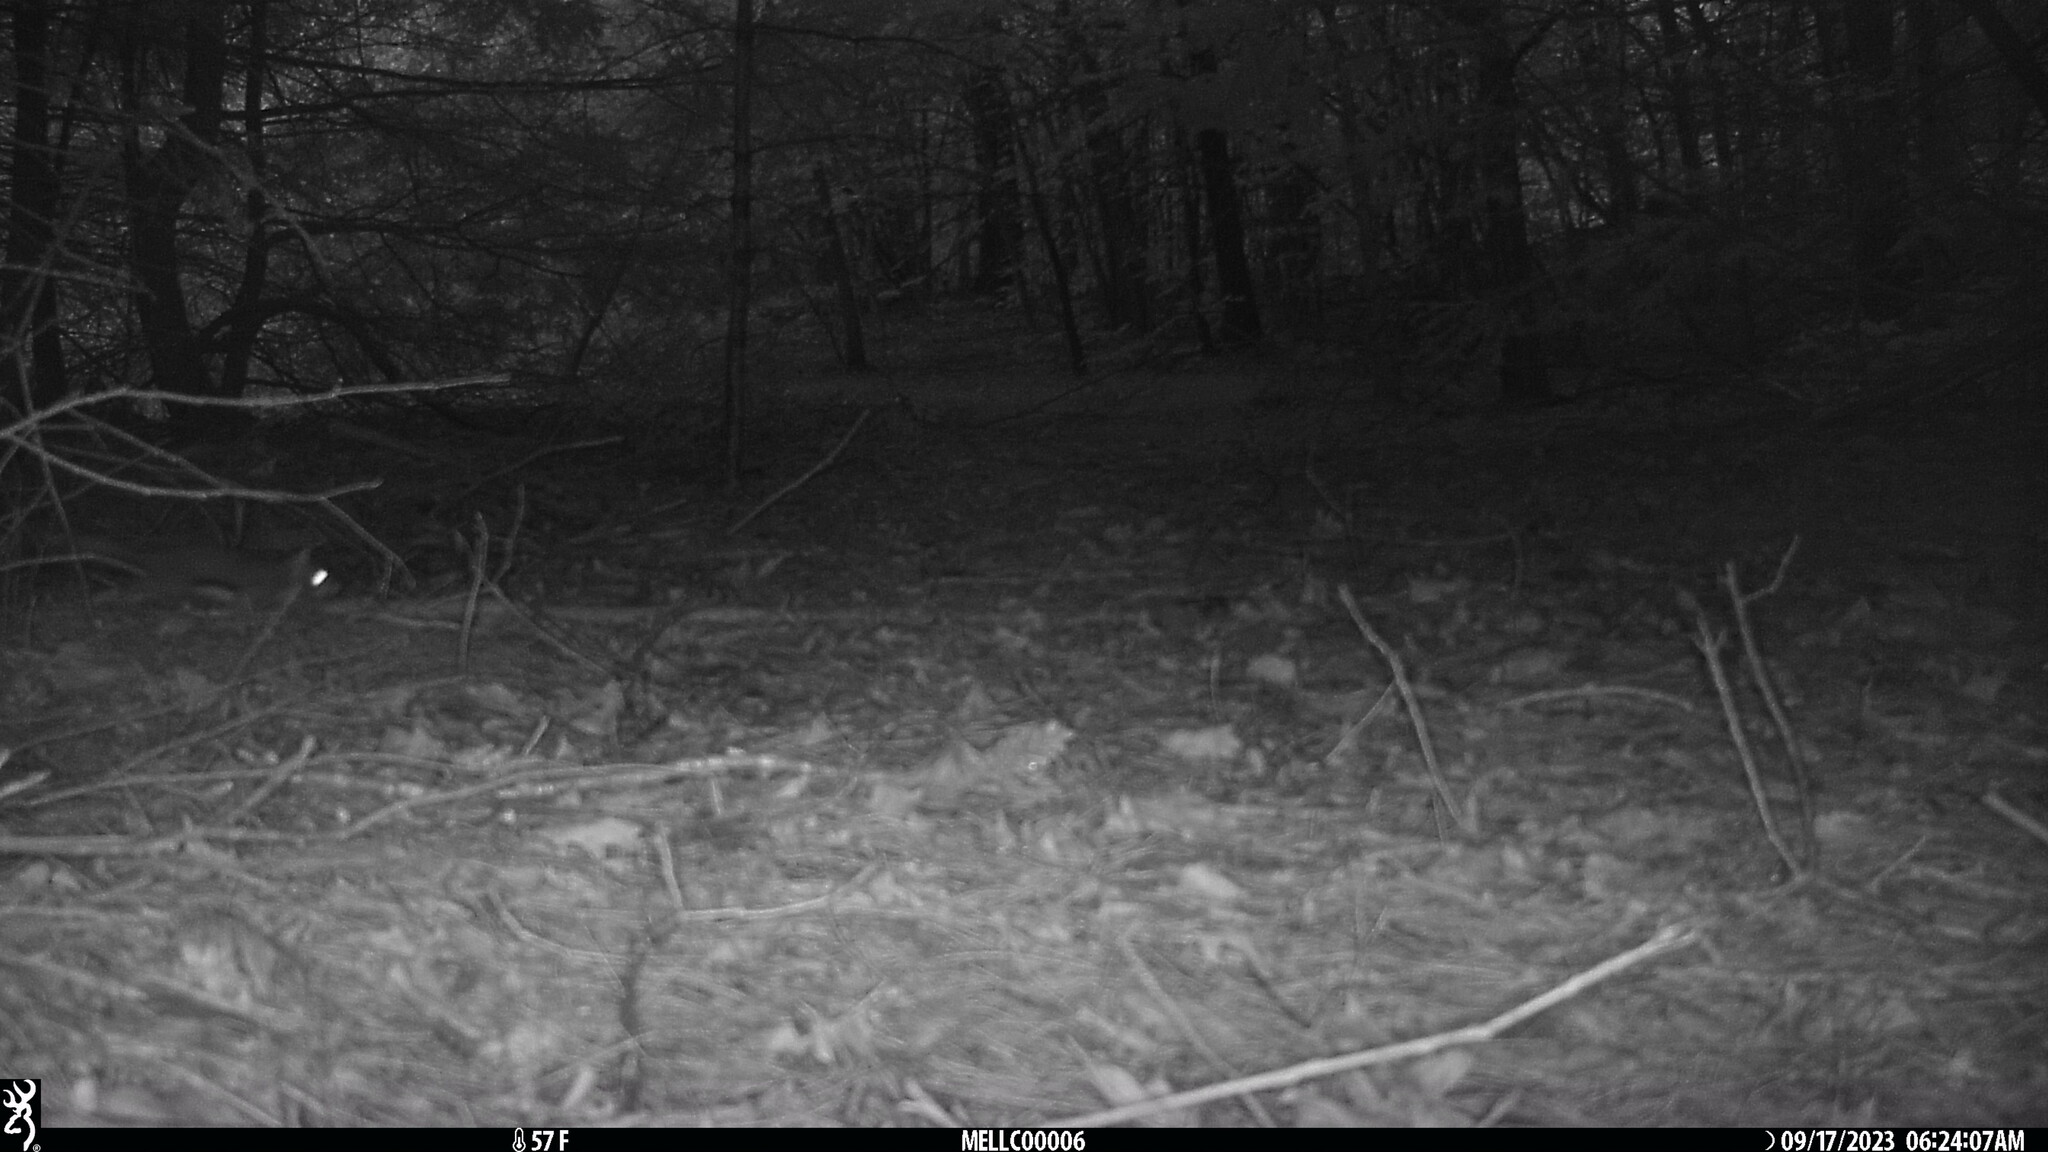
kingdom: Animalia
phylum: Chordata
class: Mammalia
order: Rodentia
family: Sciuridae
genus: Tamiasciurus
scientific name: Tamiasciurus hudsonicus
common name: Red squirrel
